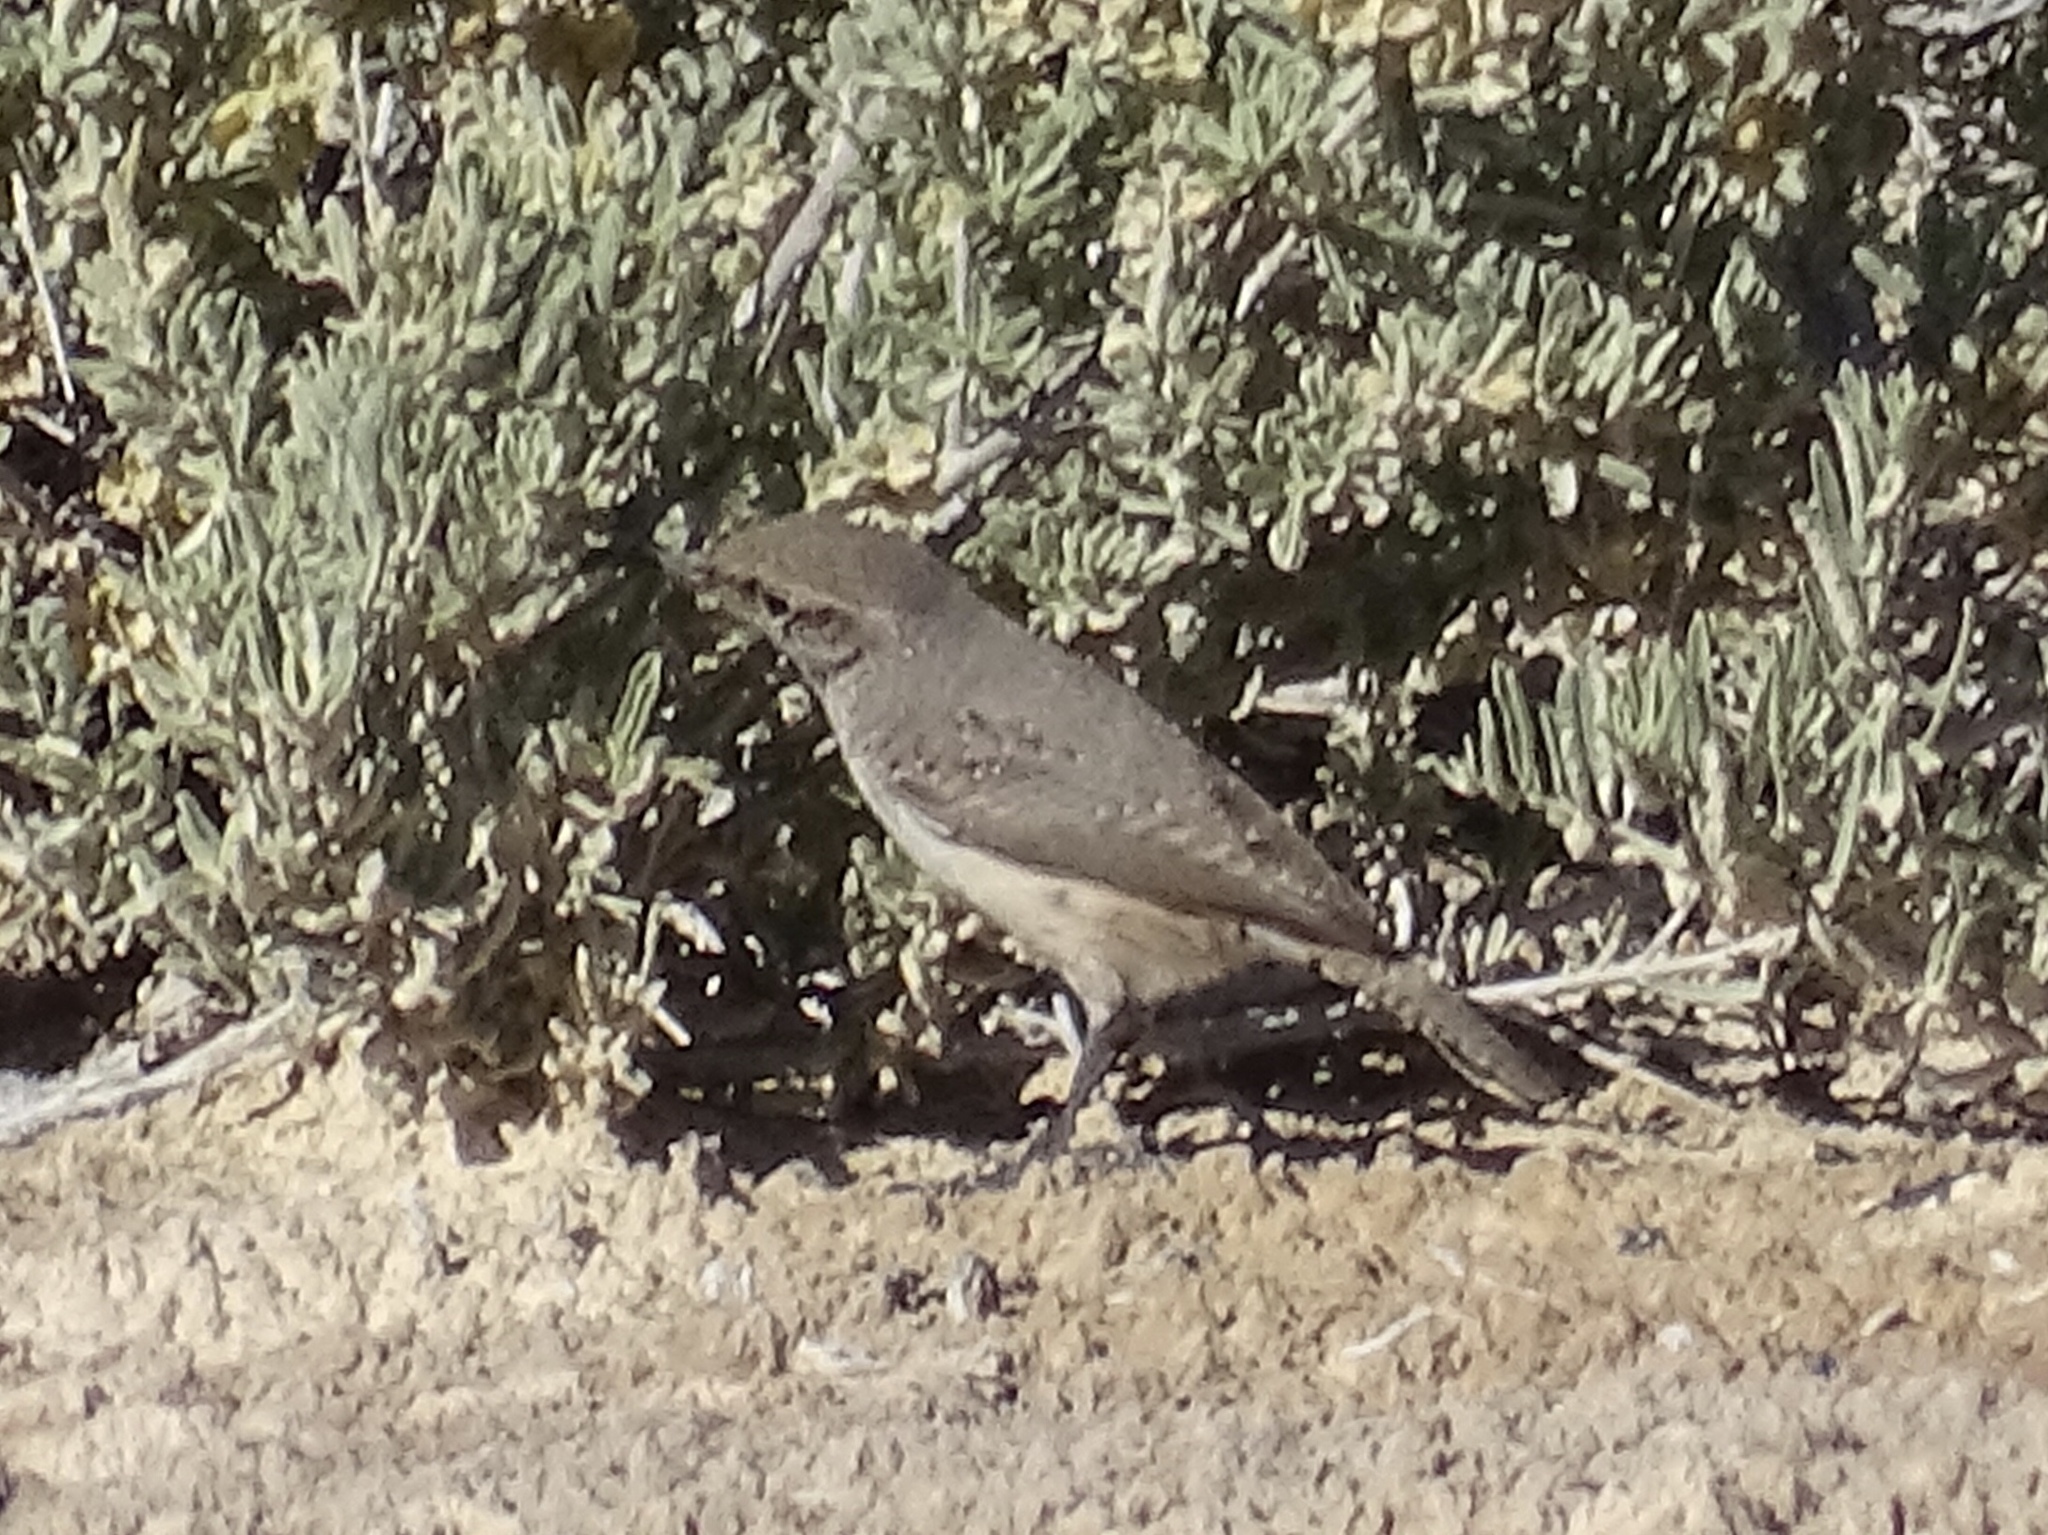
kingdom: Animalia
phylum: Chordata
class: Aves
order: Passeriformes
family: Troglodytidae
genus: Salpinctes
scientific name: Salpinctes obsoletus
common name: Rock wren
